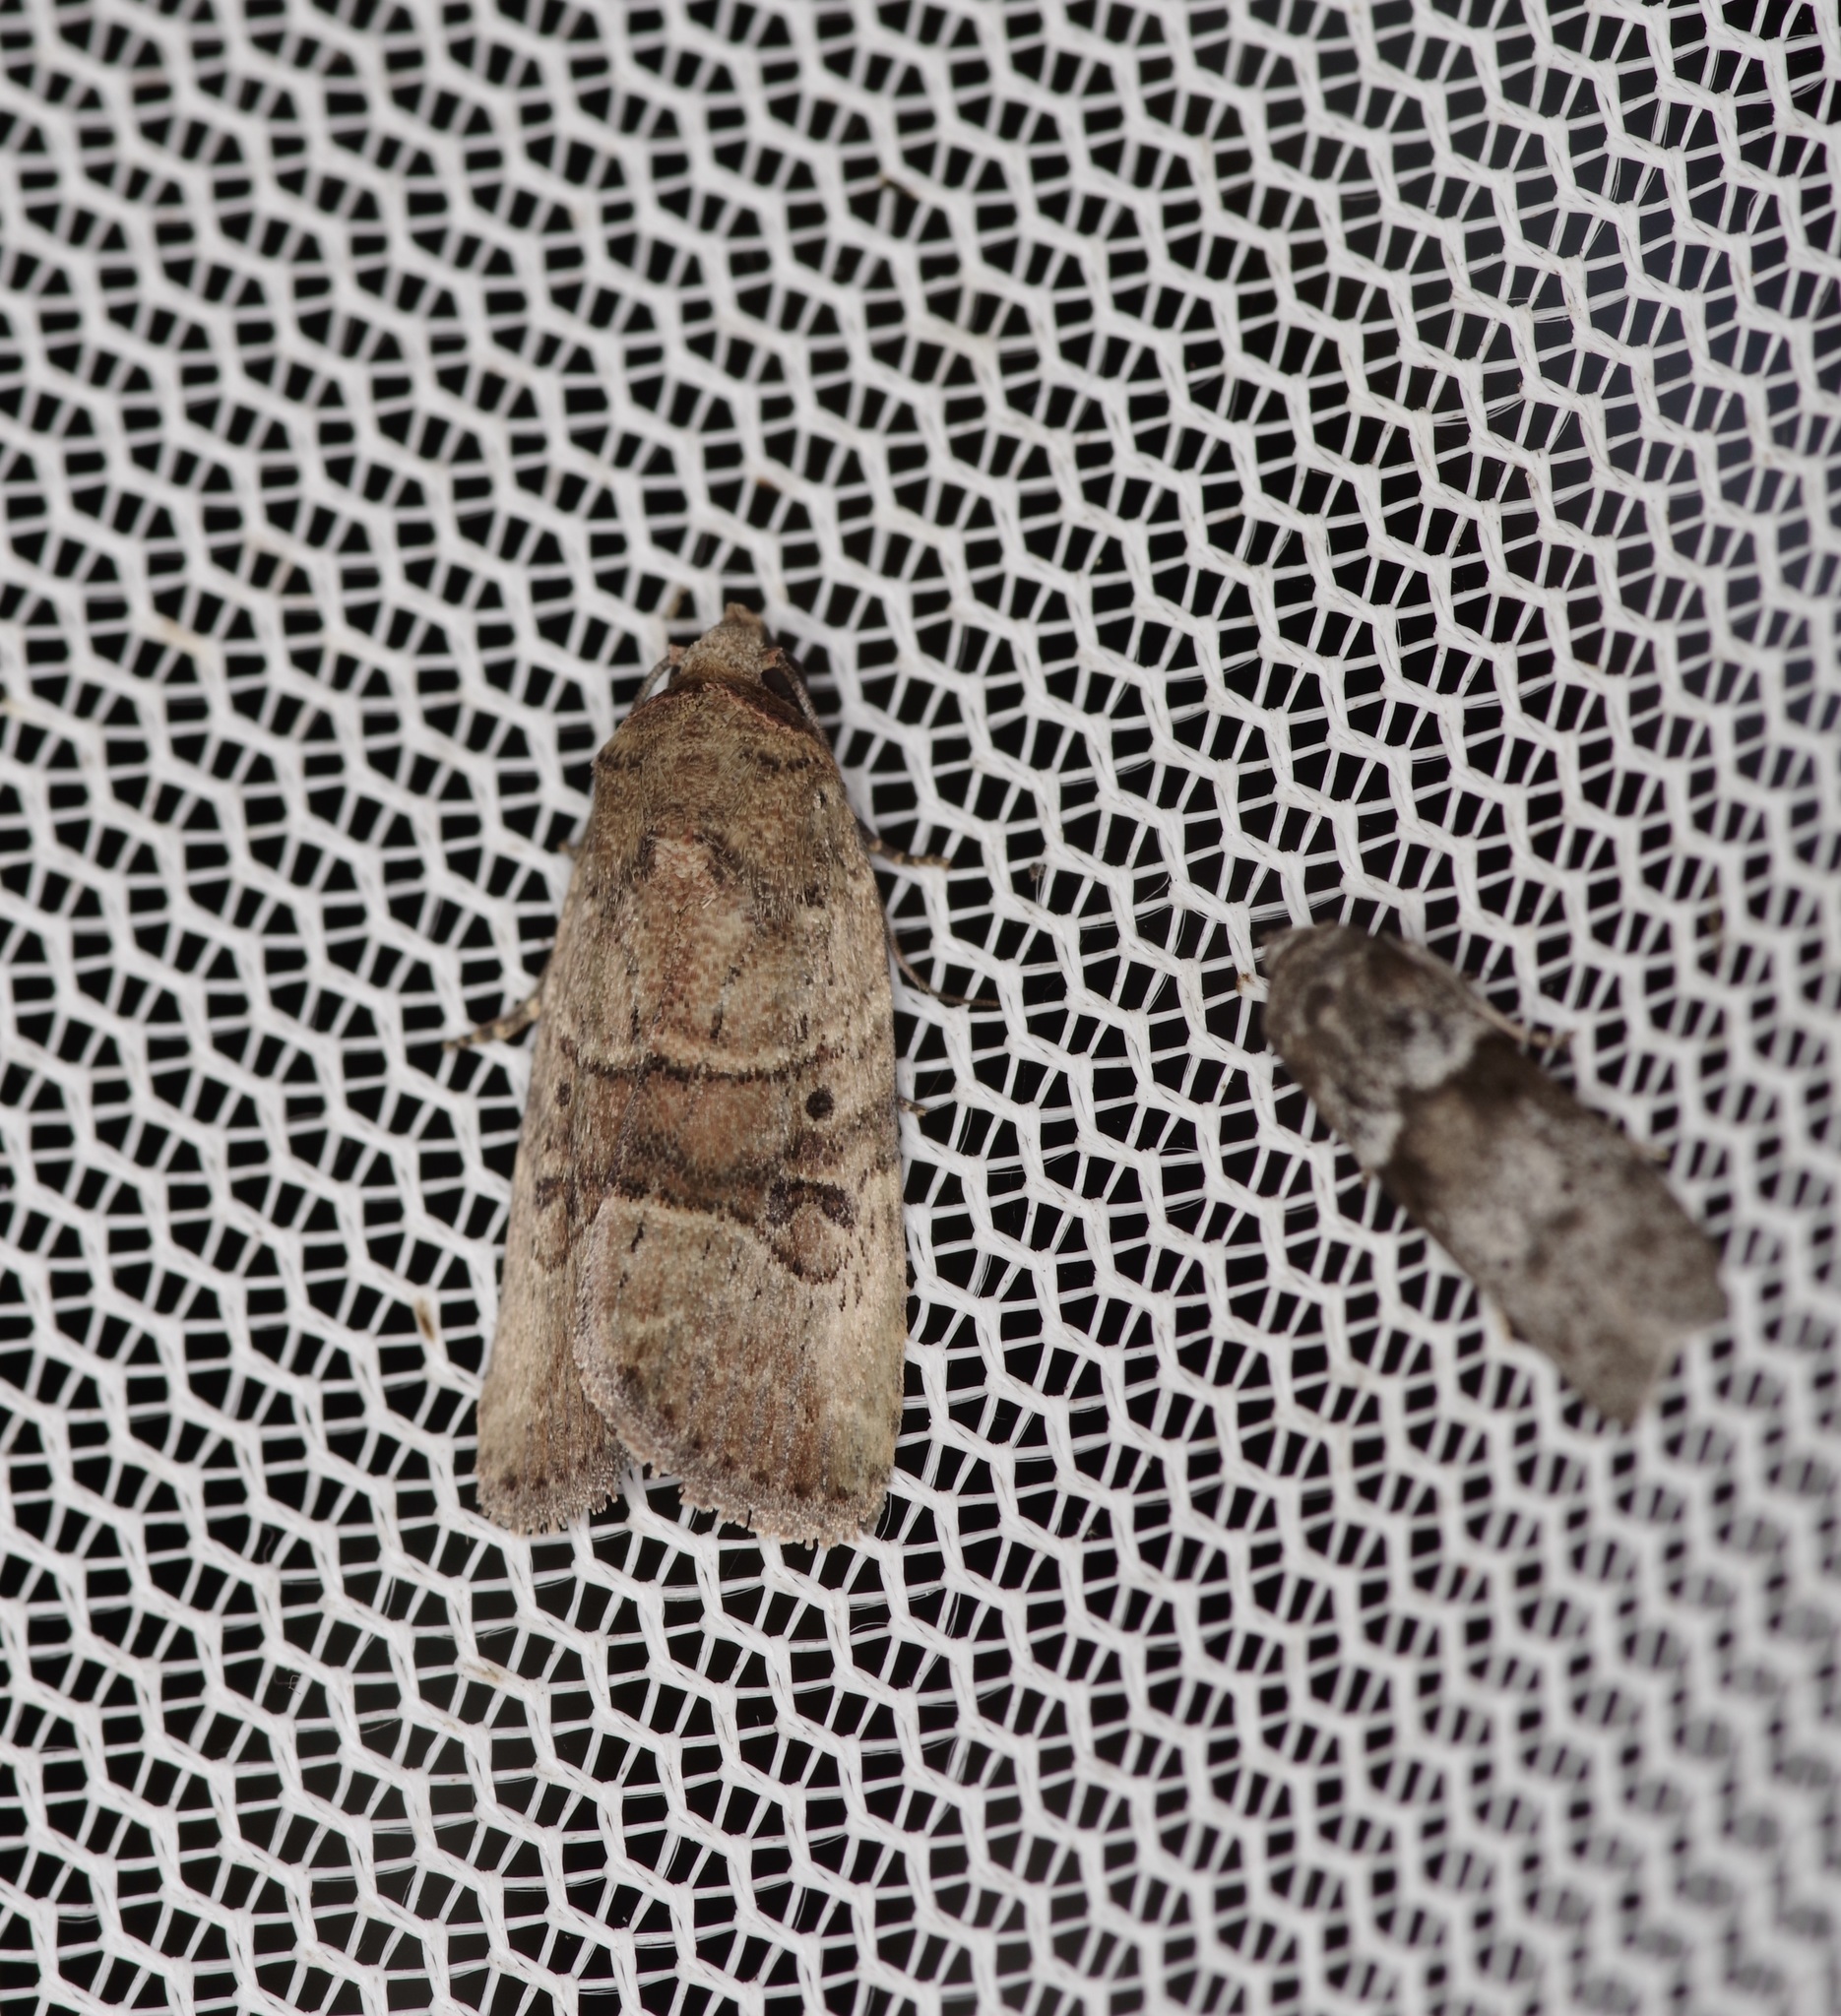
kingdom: Animalia
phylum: Arthropoda
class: Insecta
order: Lepidoptera
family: Noctuidae
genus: Elaphria
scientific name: Elaphria fuscimacula
